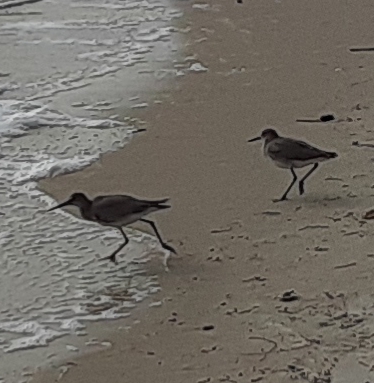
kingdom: Animalia
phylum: Chordata
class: Aves
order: Charadriiformes
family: Scolopacidae
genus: Tringa
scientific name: Tringa semipalmata
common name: Willet
